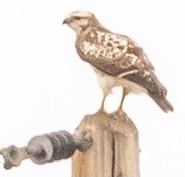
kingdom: Animalia
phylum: Chordata
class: Aves
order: Accipitriformes
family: Accipitridae
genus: Buteo
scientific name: Buteo jamaicensis
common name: Red-tailed hawk
